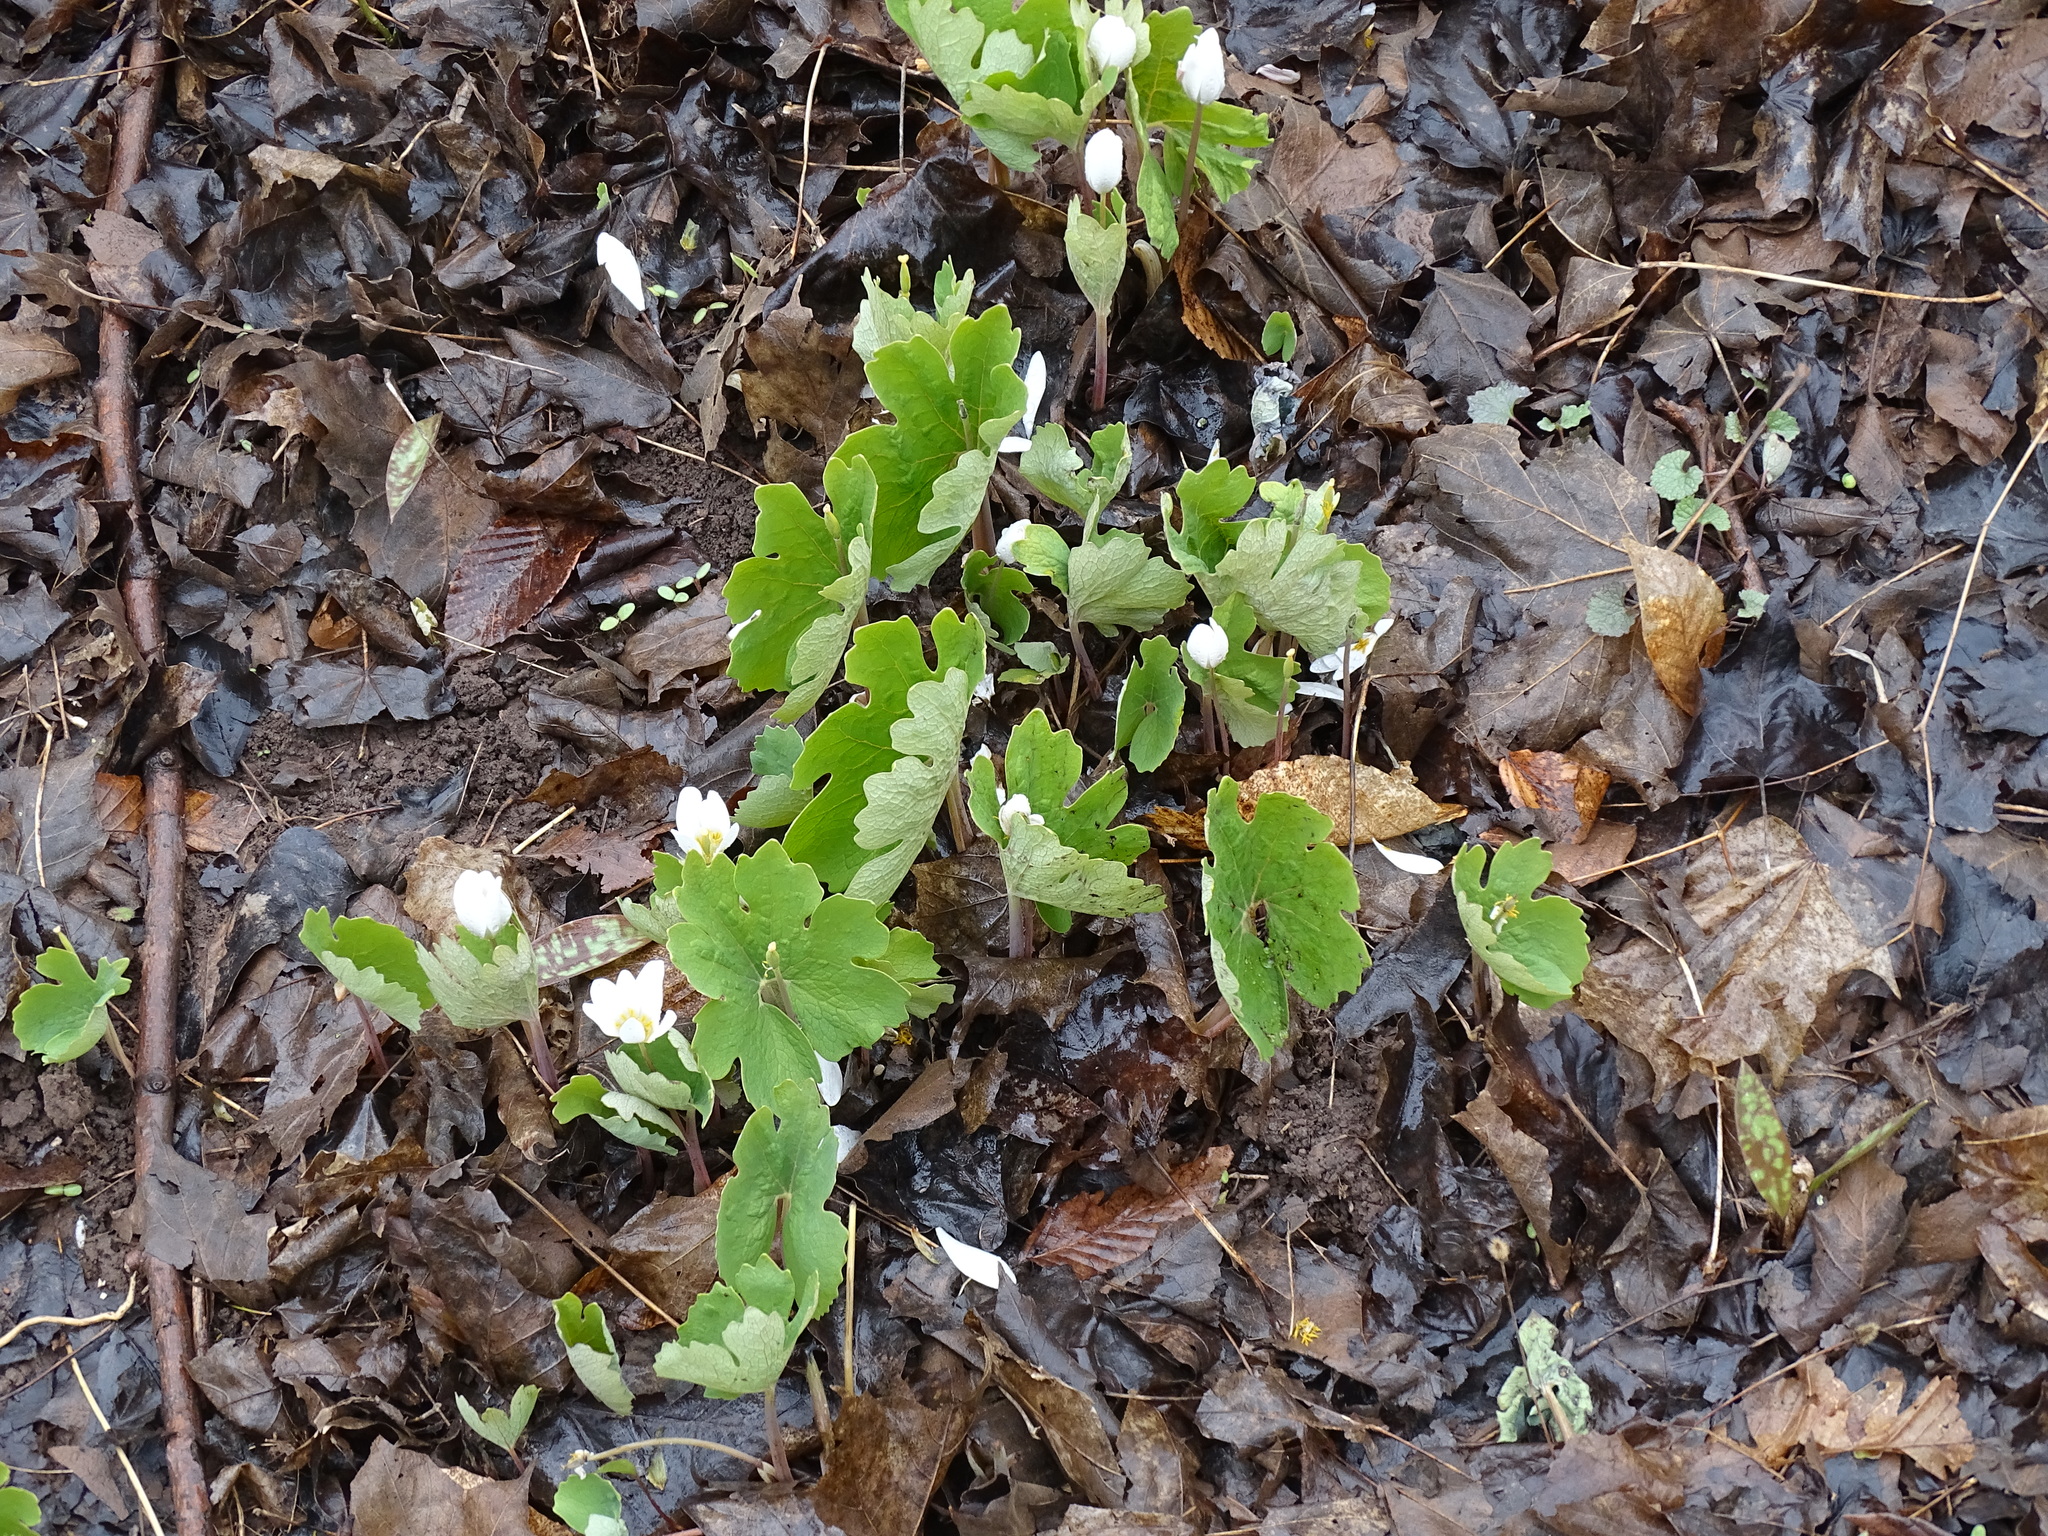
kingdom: Plantae
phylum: Tracheophyta
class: Magnoliopsida
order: Ranunculales
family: Papaveraceae
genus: Sanguinaria
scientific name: Sanguinaria canadensis
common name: Bloodroot
